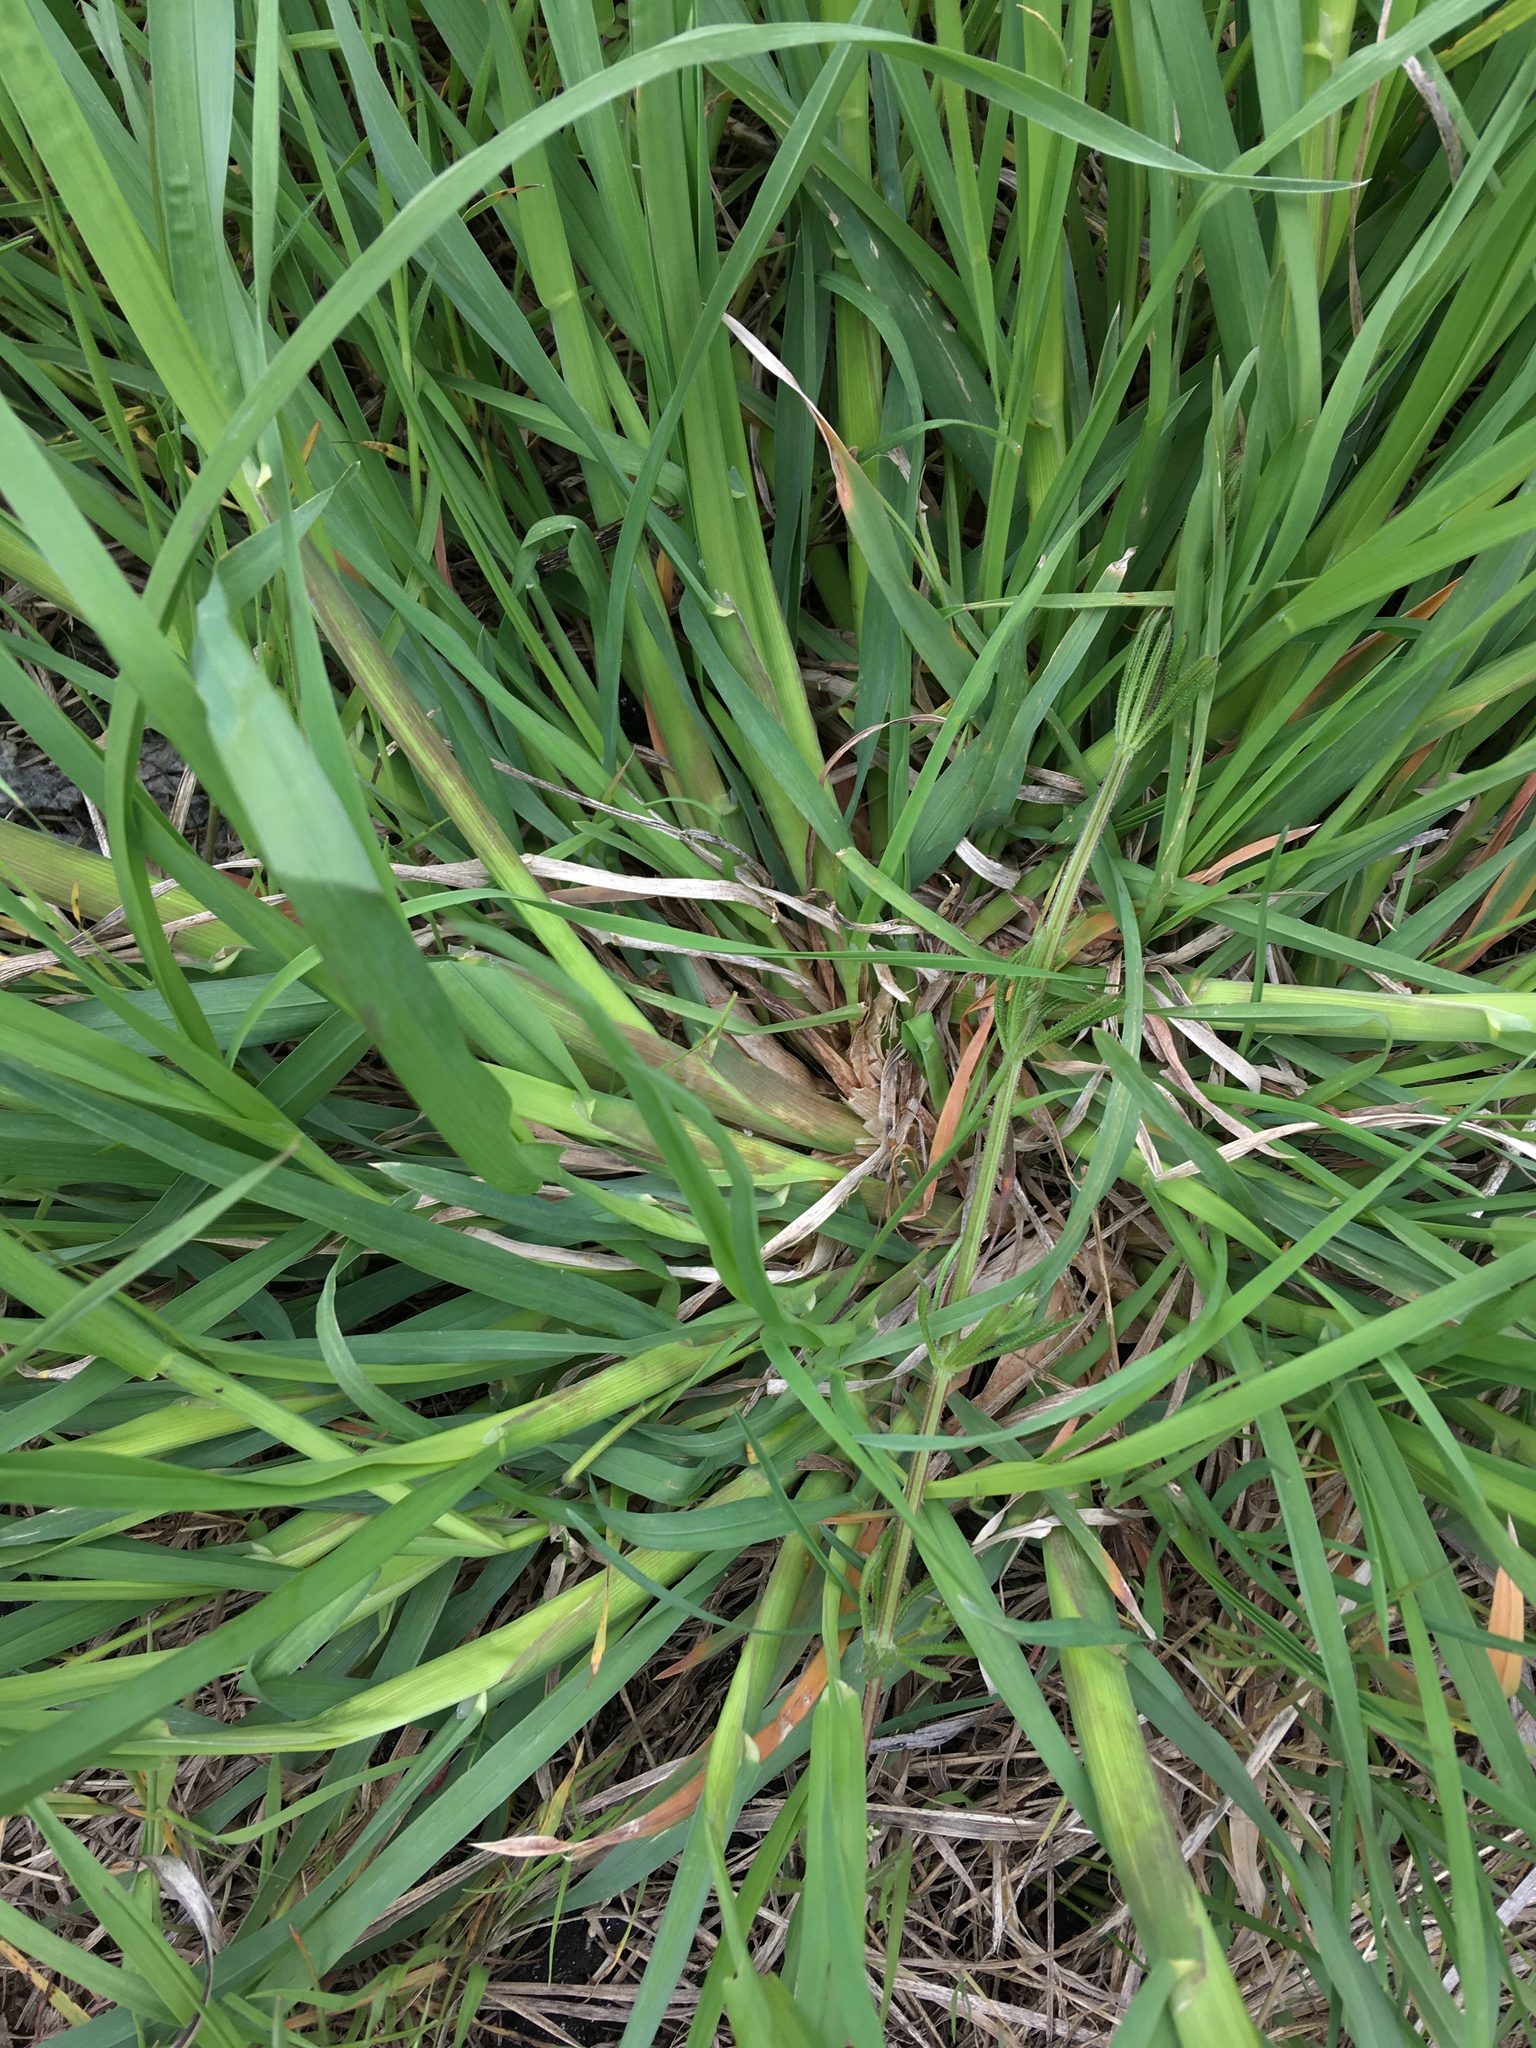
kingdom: Plantae
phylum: Tracheophyta
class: Liliopsida
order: Poales
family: Poaceae
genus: Dactylis
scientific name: Dactylis glomerata
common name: Orchardgrass
